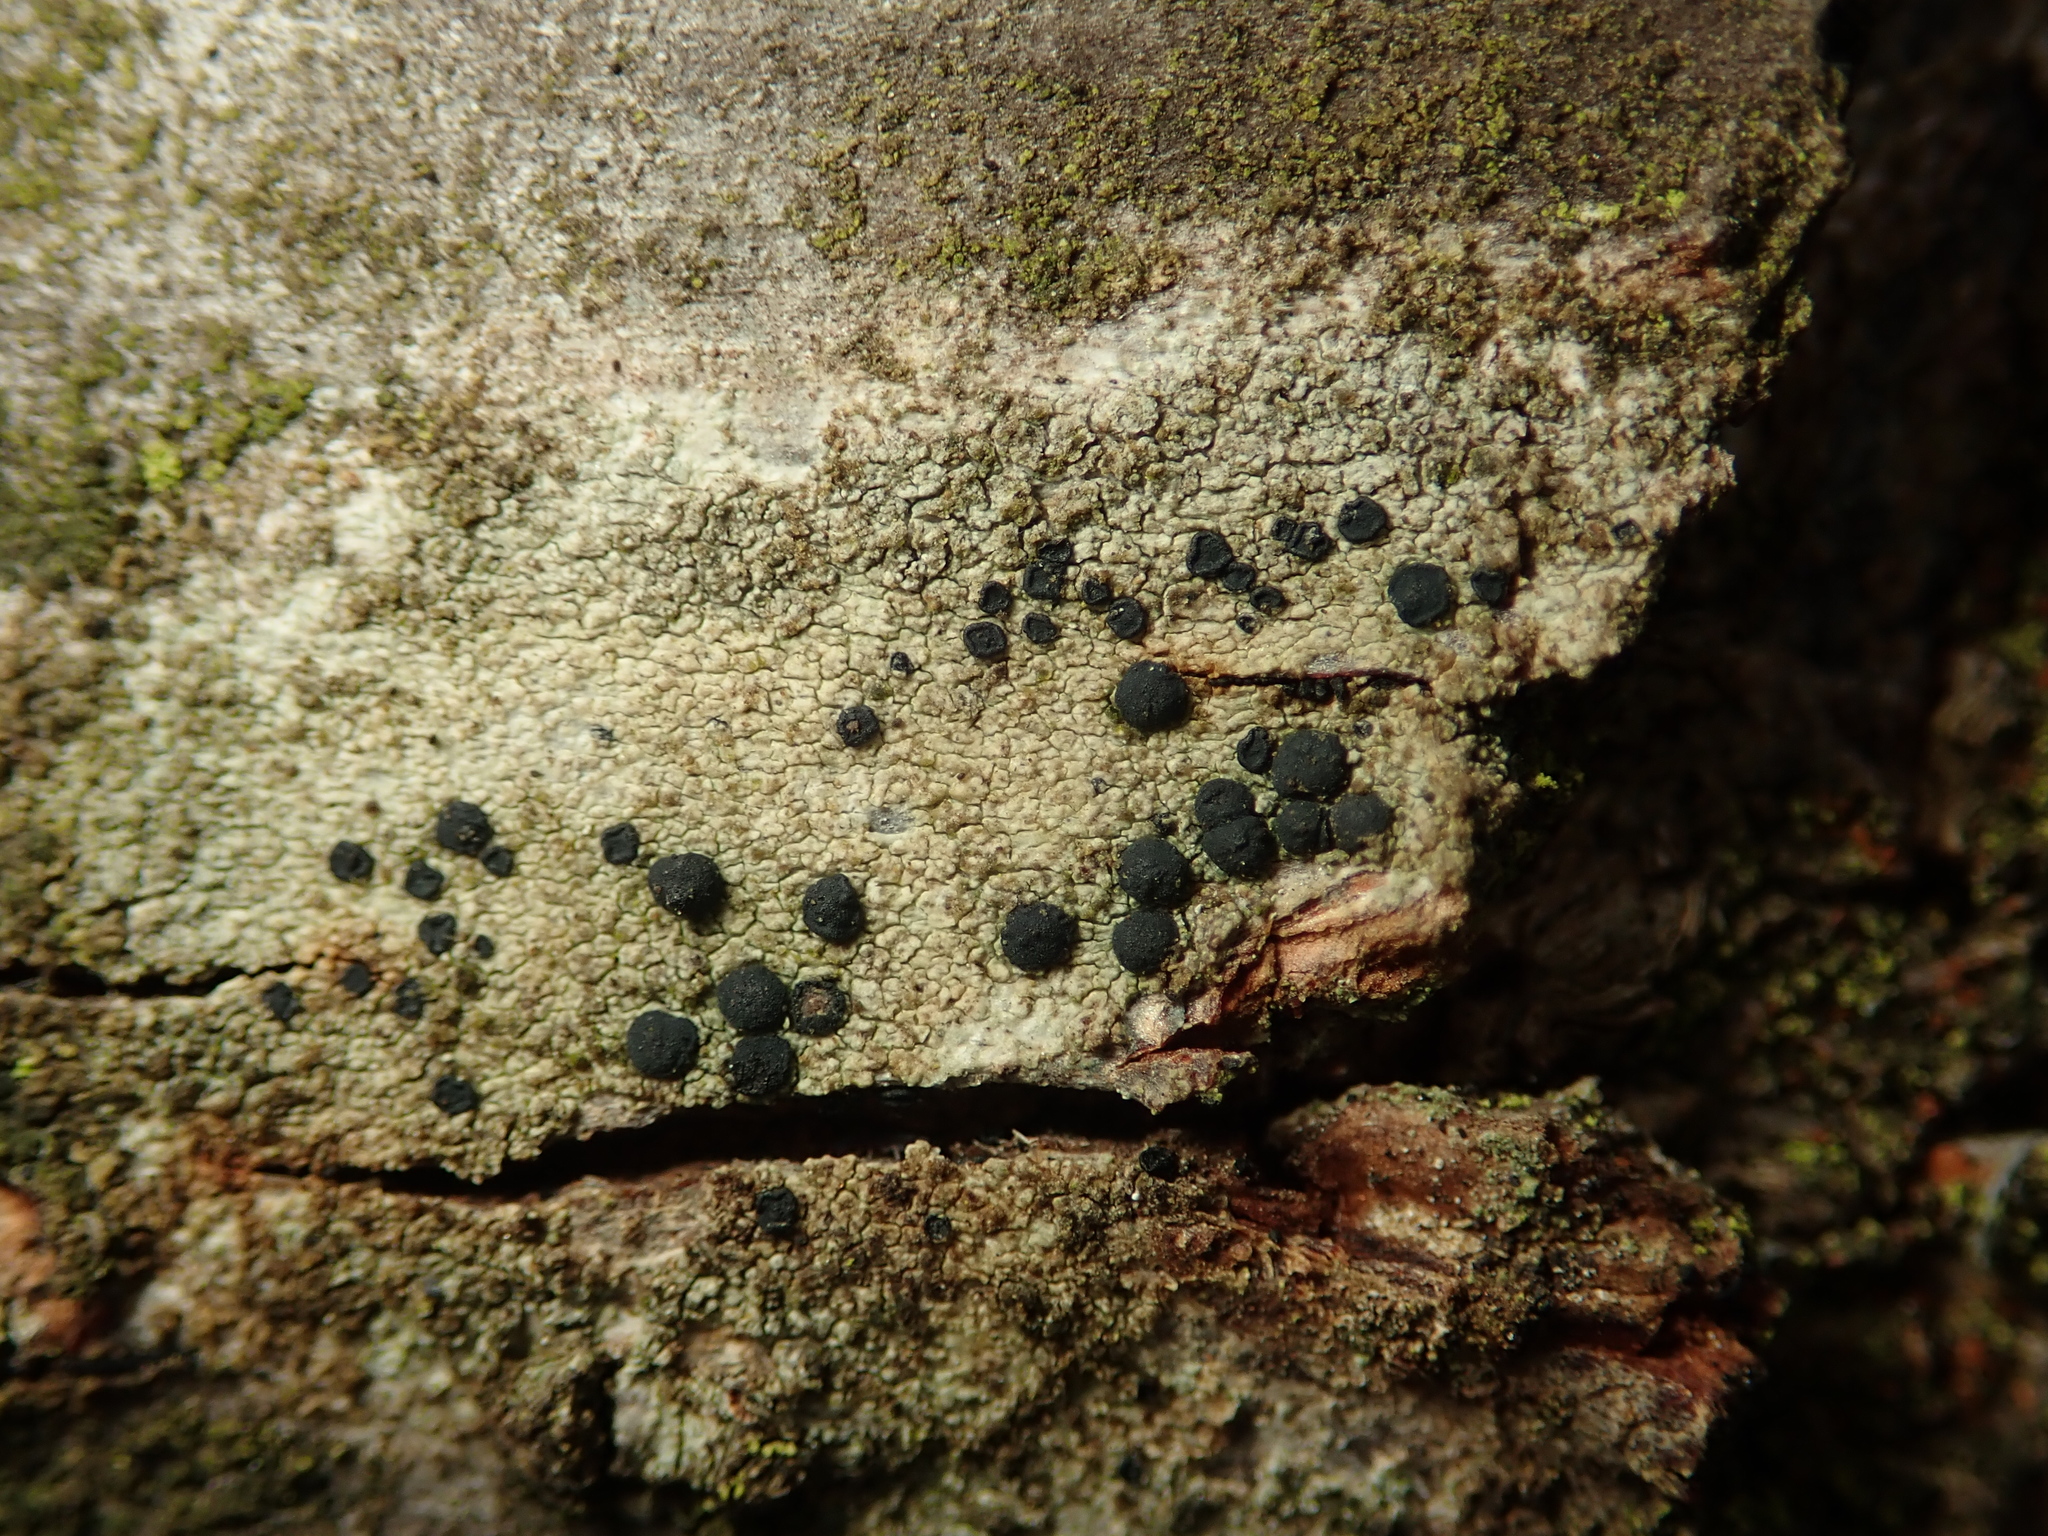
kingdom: Fungi
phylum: Ascomycota
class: Lecanoromycetes
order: Lecanorales
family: Lecanoraceae
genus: Lecidella
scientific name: Lecidella elaeochroma
